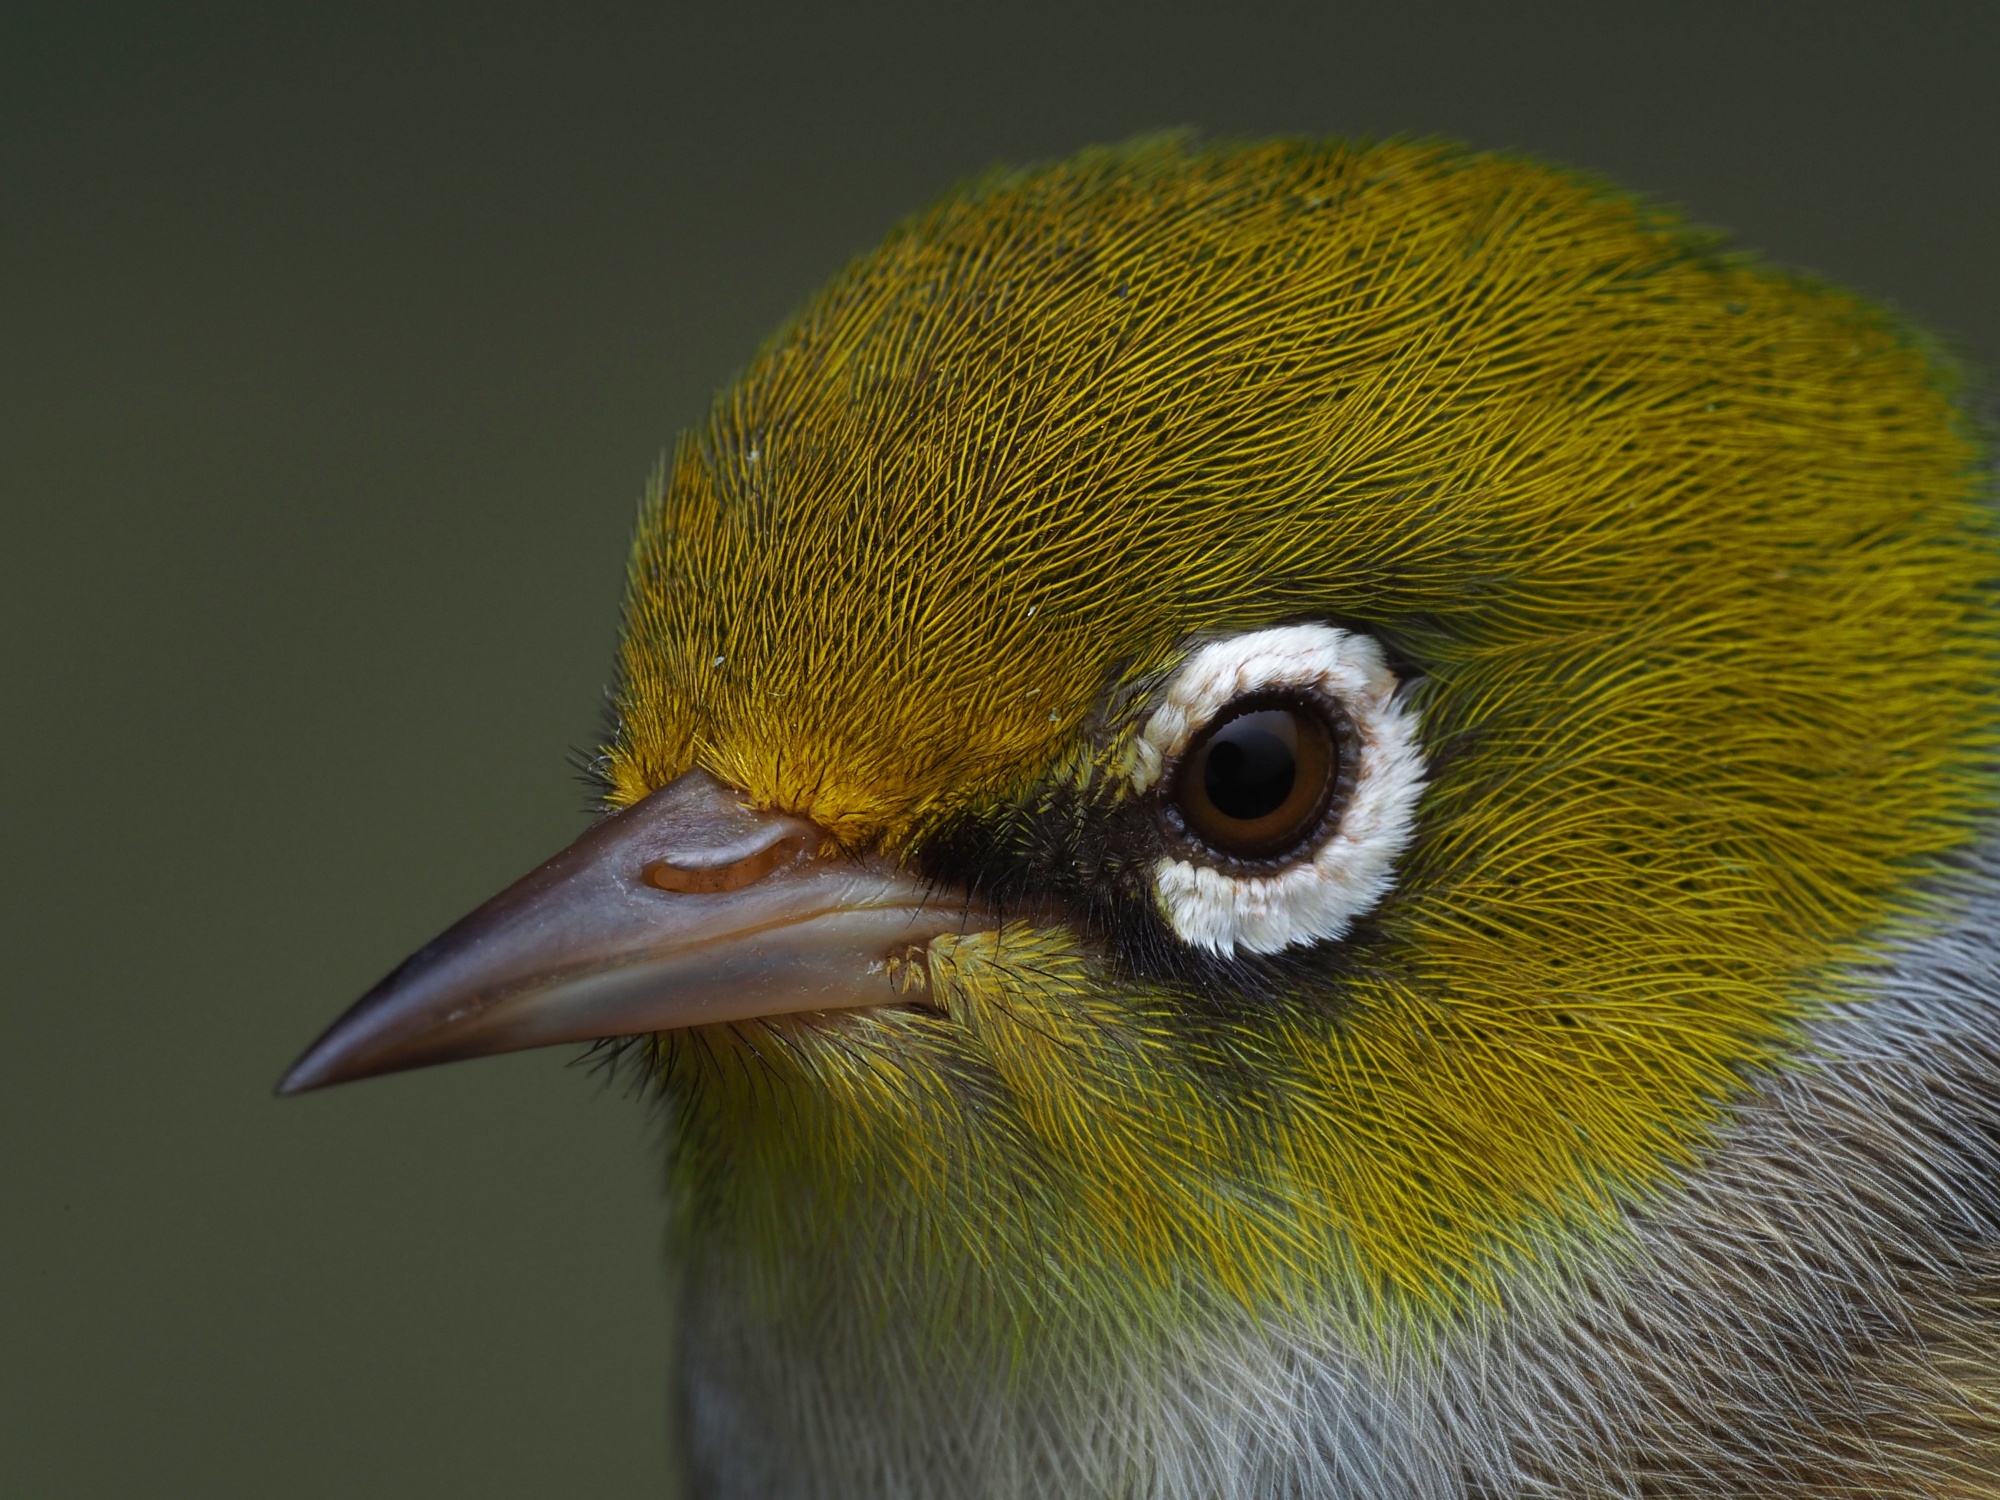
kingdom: Animalia
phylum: Chordata
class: Aves
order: Passeriformes
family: Zosteropidae
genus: Zosterops
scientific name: Zosterops lateralis
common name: Silvereye
